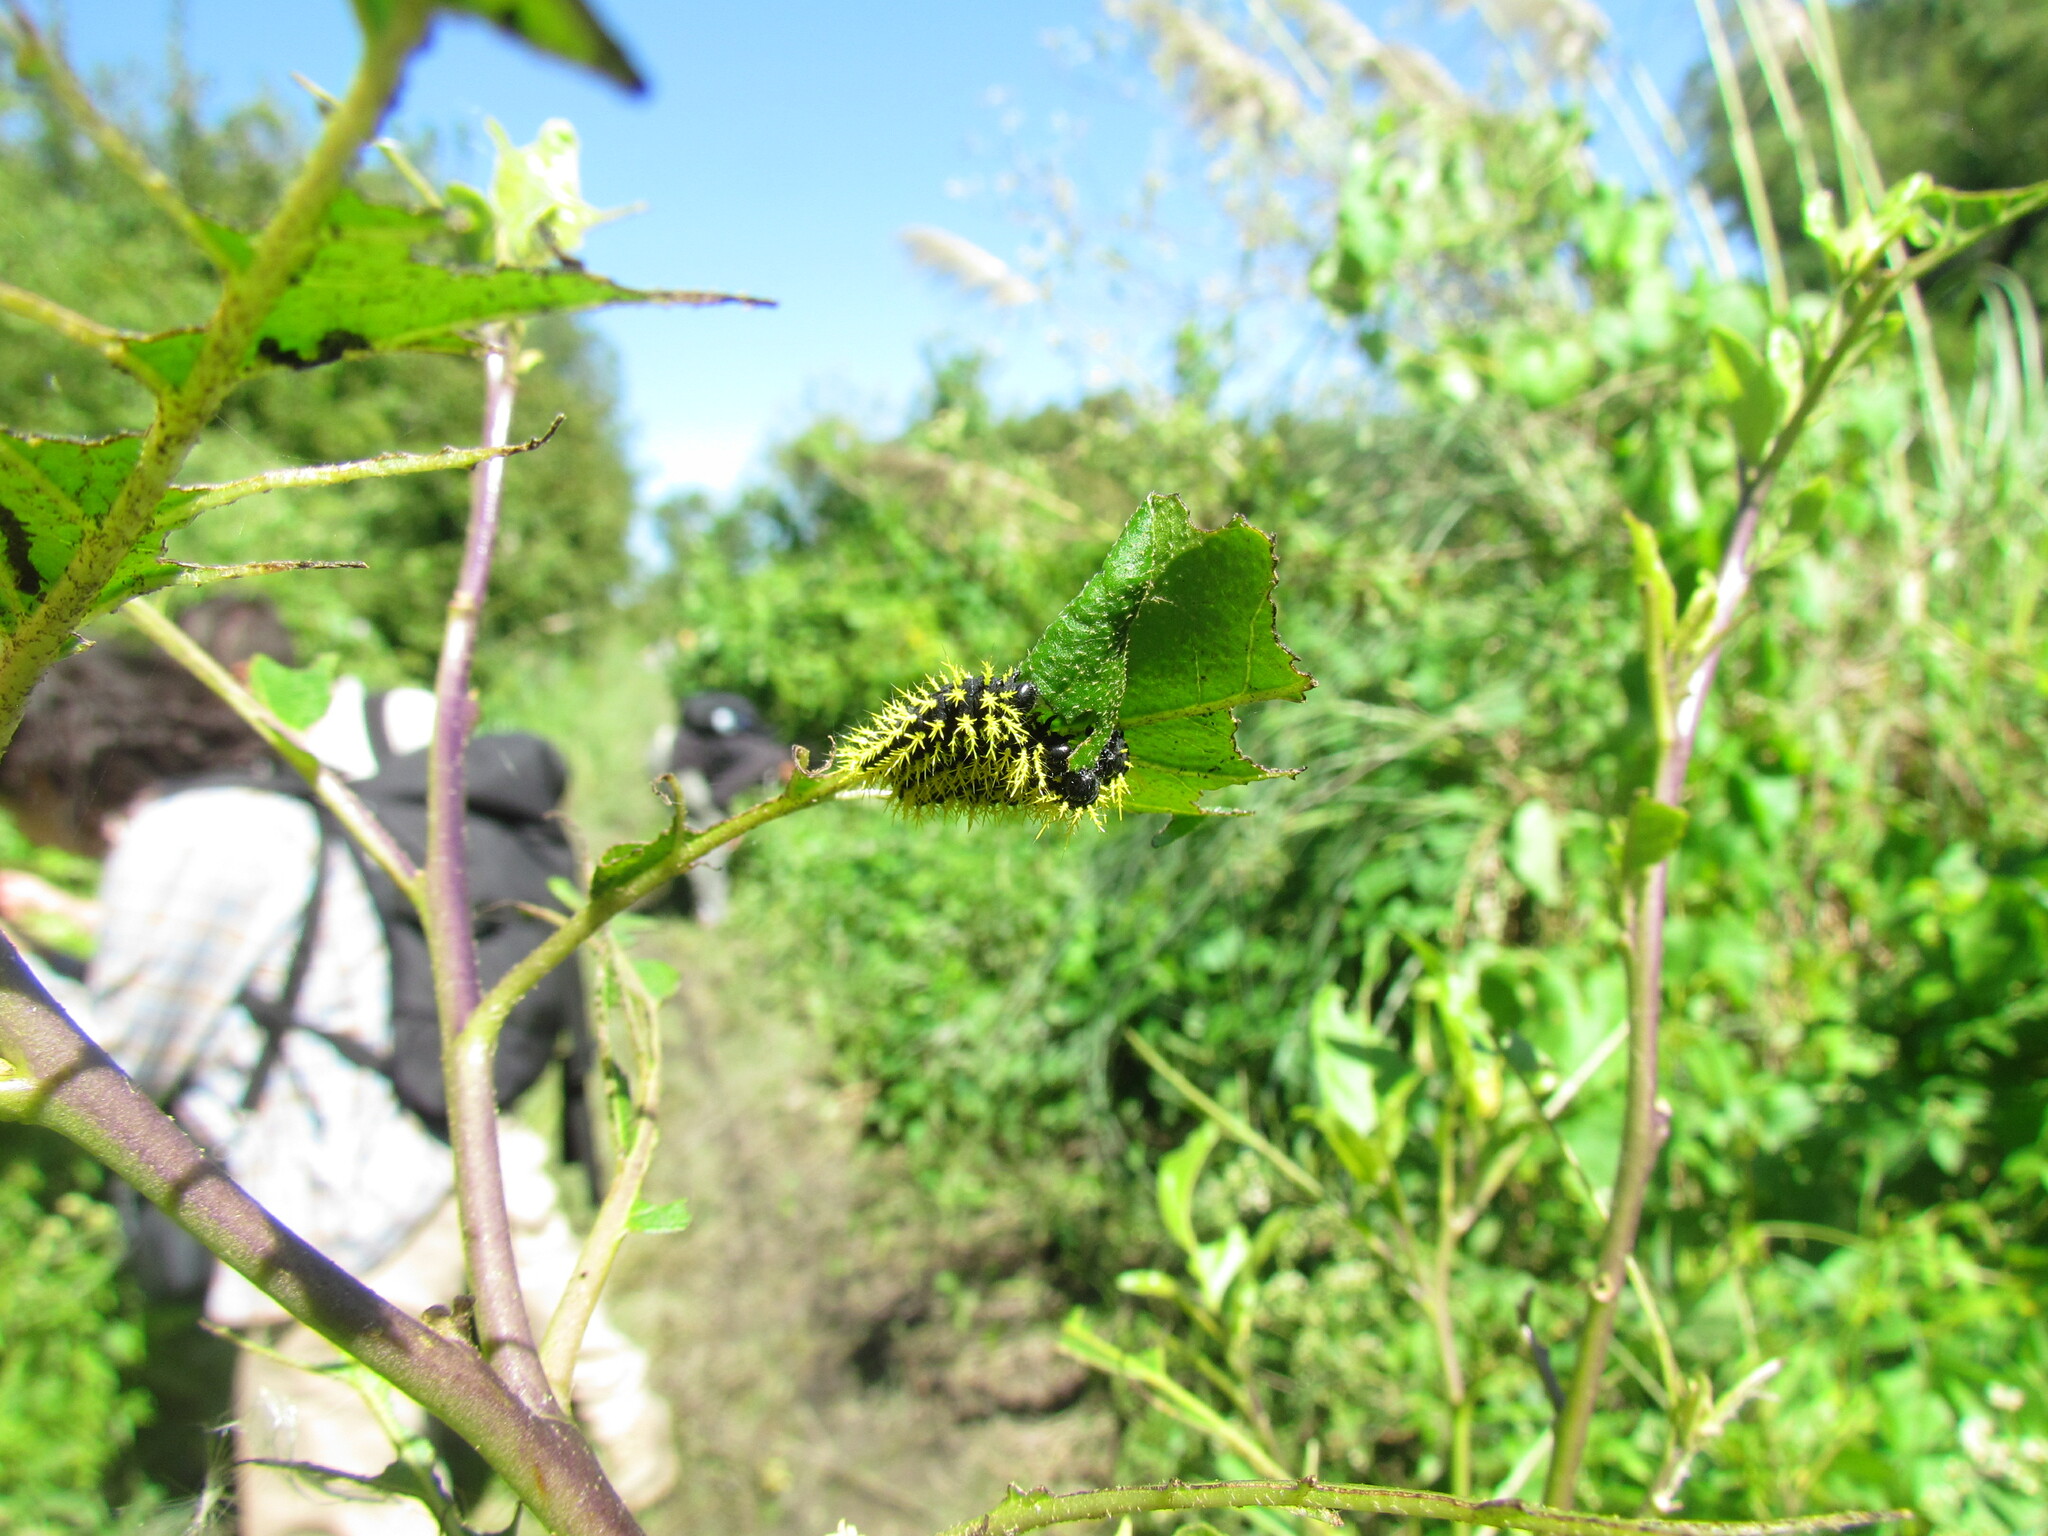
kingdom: Animalia
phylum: Arthropoda
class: Insecta
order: Lepidoptera
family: Saturniidae
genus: Leucanella
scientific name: Leucanella viridescens
